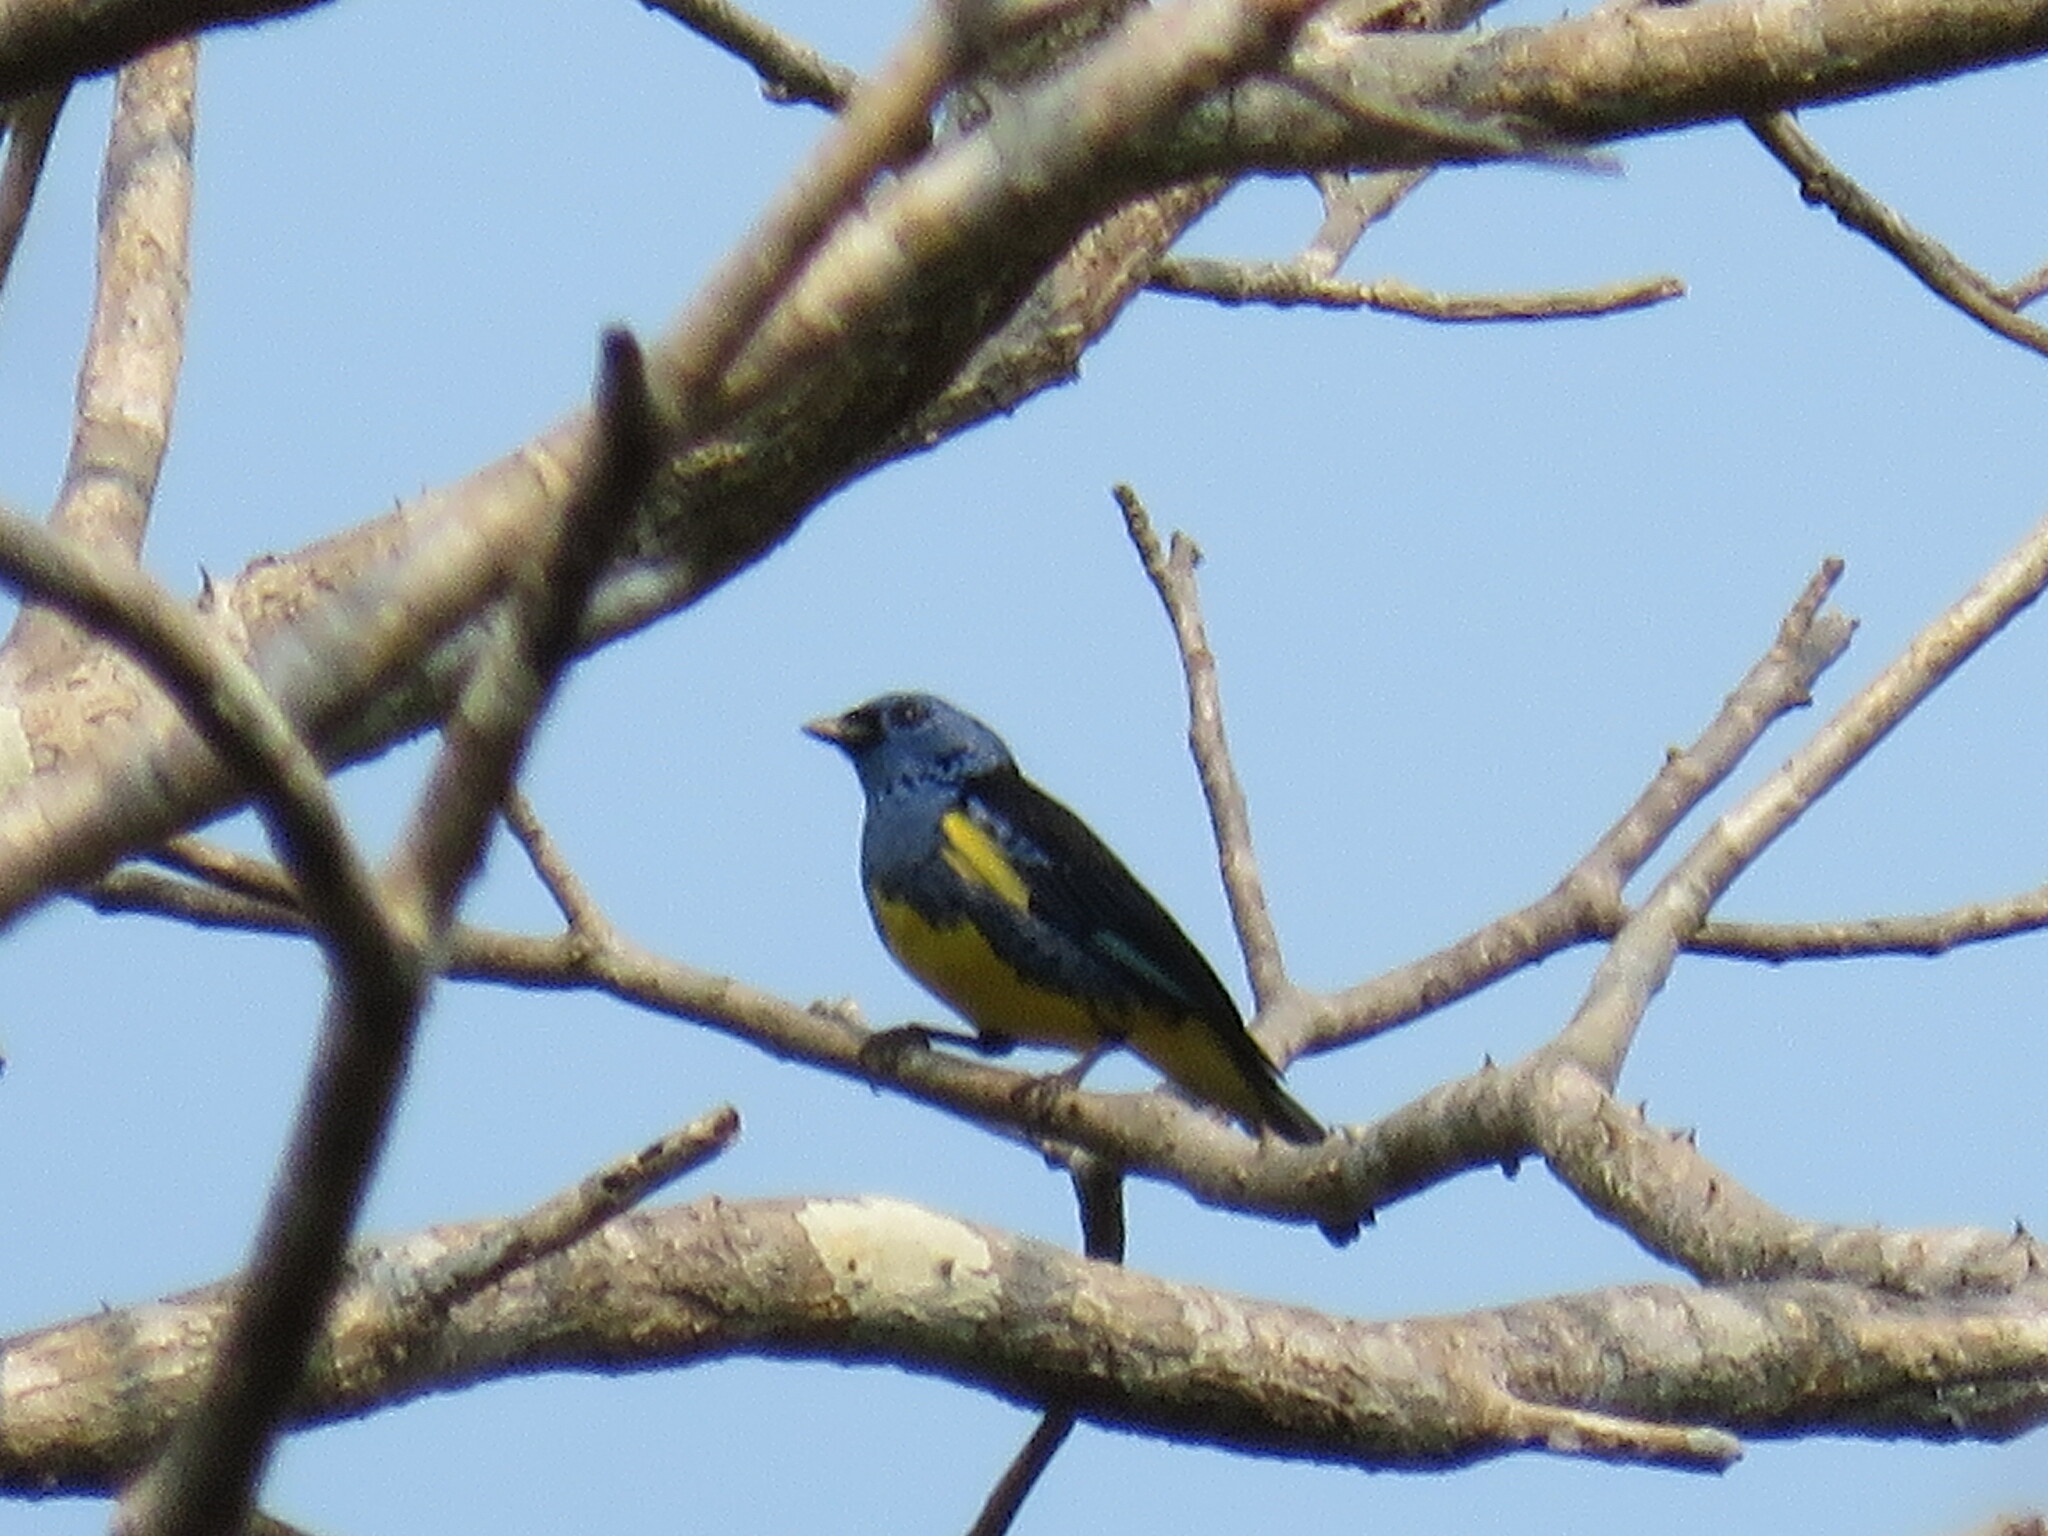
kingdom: Animalia
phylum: Chordata
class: Aves
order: Passeriformes
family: Thraupidae
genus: Tangara
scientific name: Tangara mexicana
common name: Turquoise tanager
